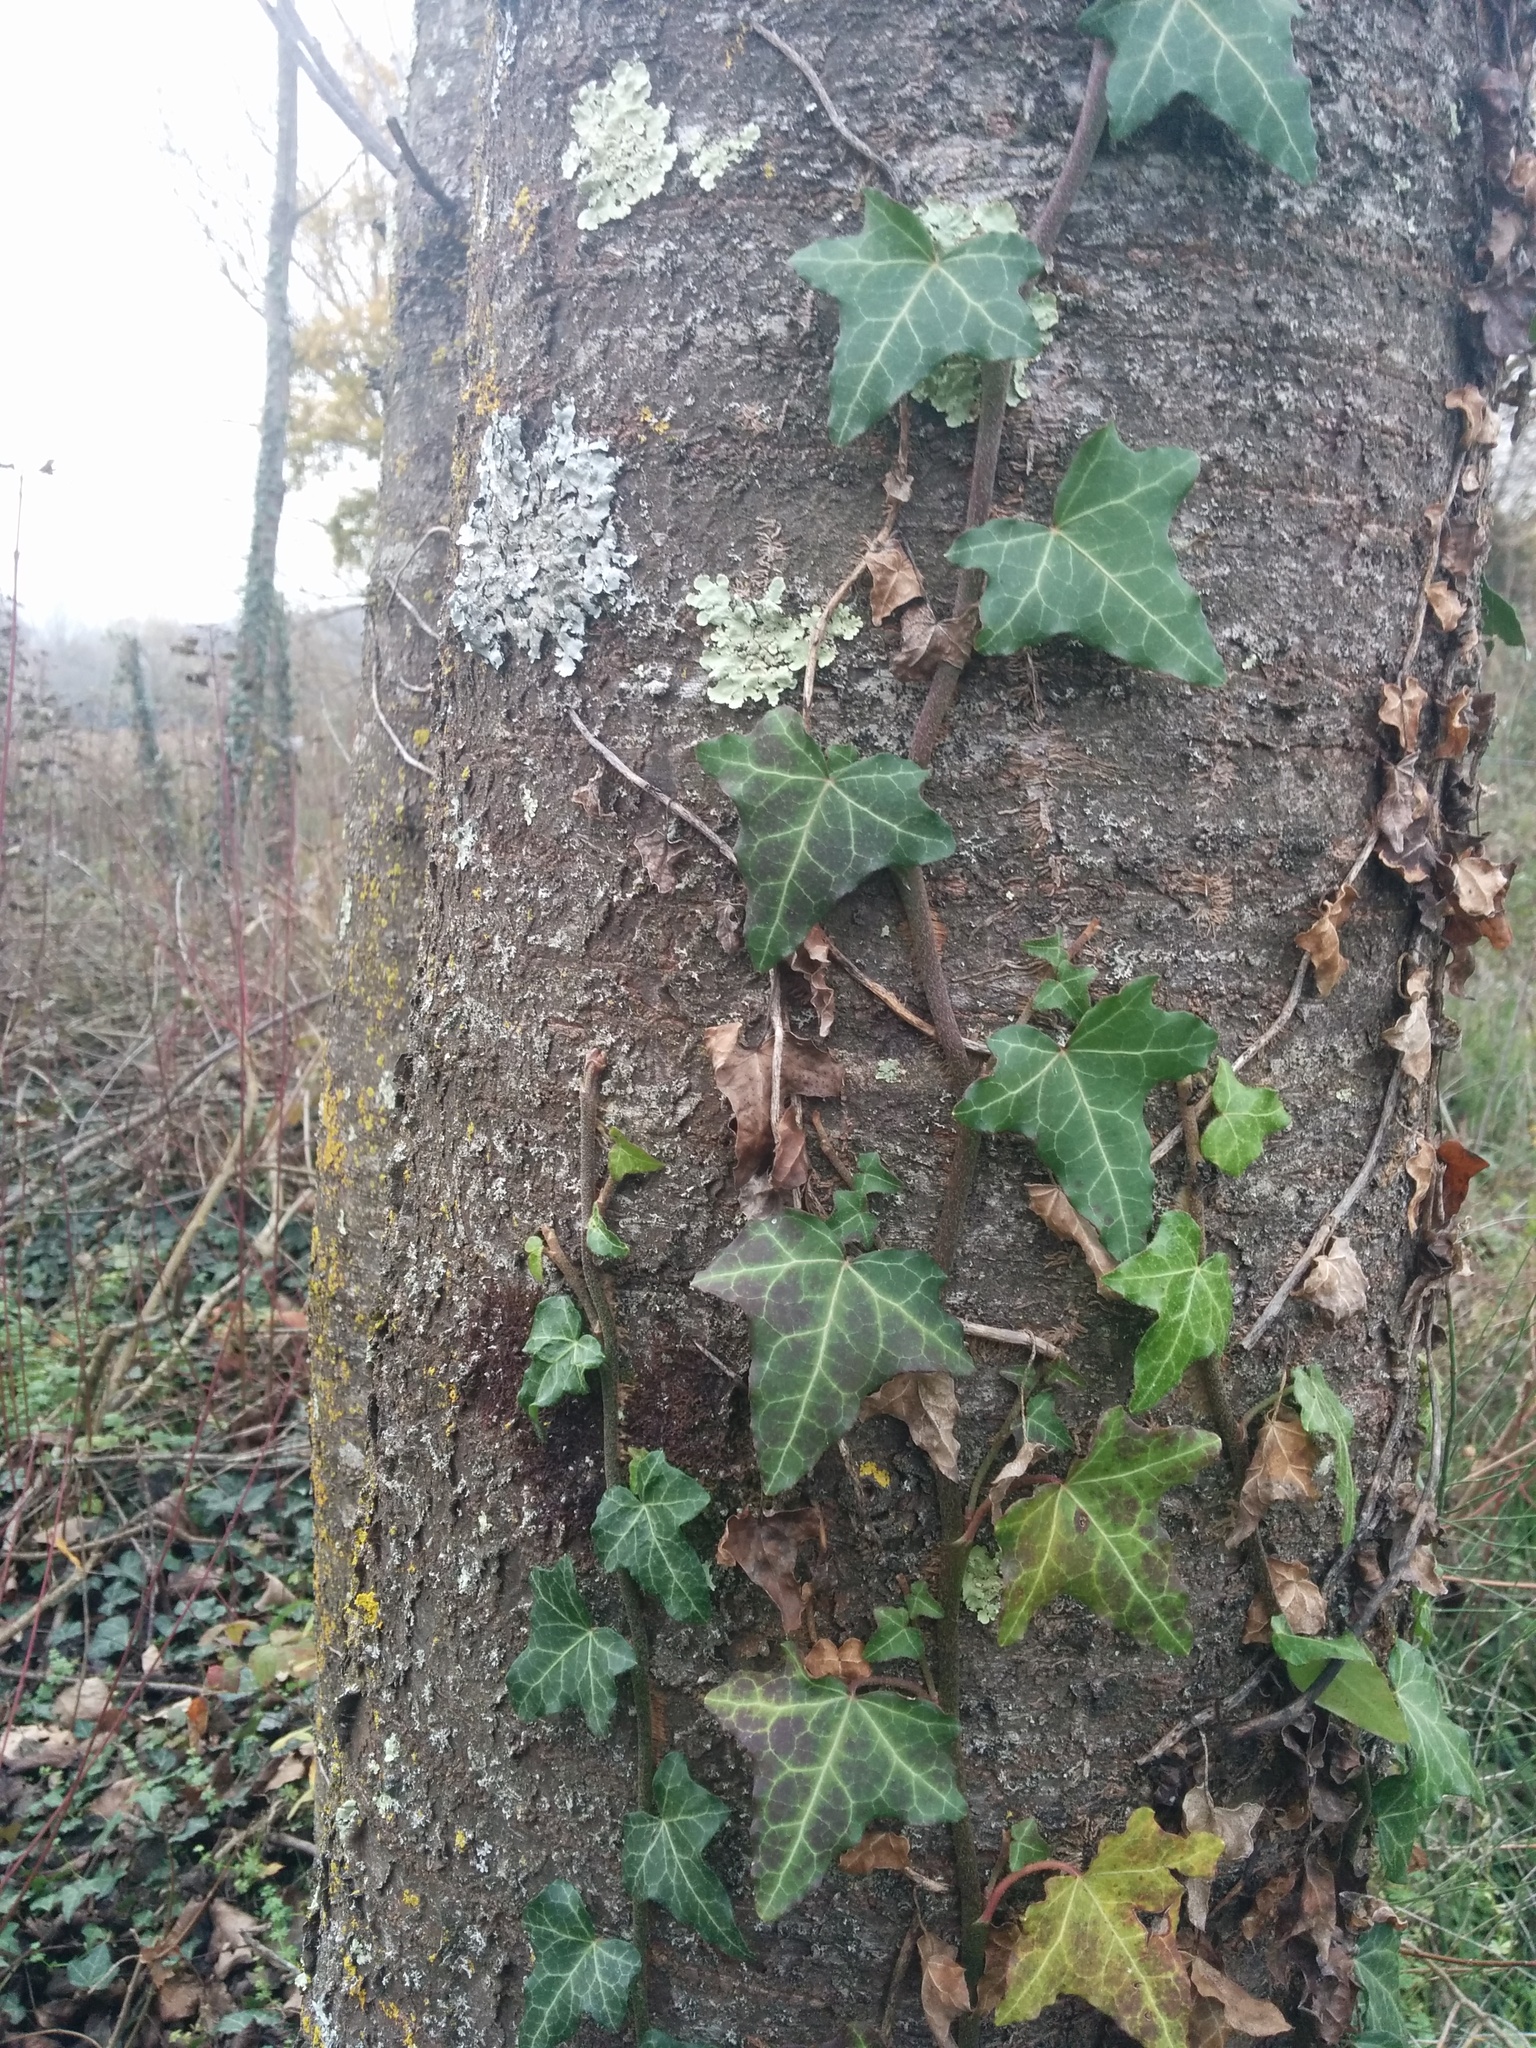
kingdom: Plantae
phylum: Tracheophyta
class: Magnoliopsida
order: Apiales
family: Araliaceae
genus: Hedera
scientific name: Hedera helix
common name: Ivy
